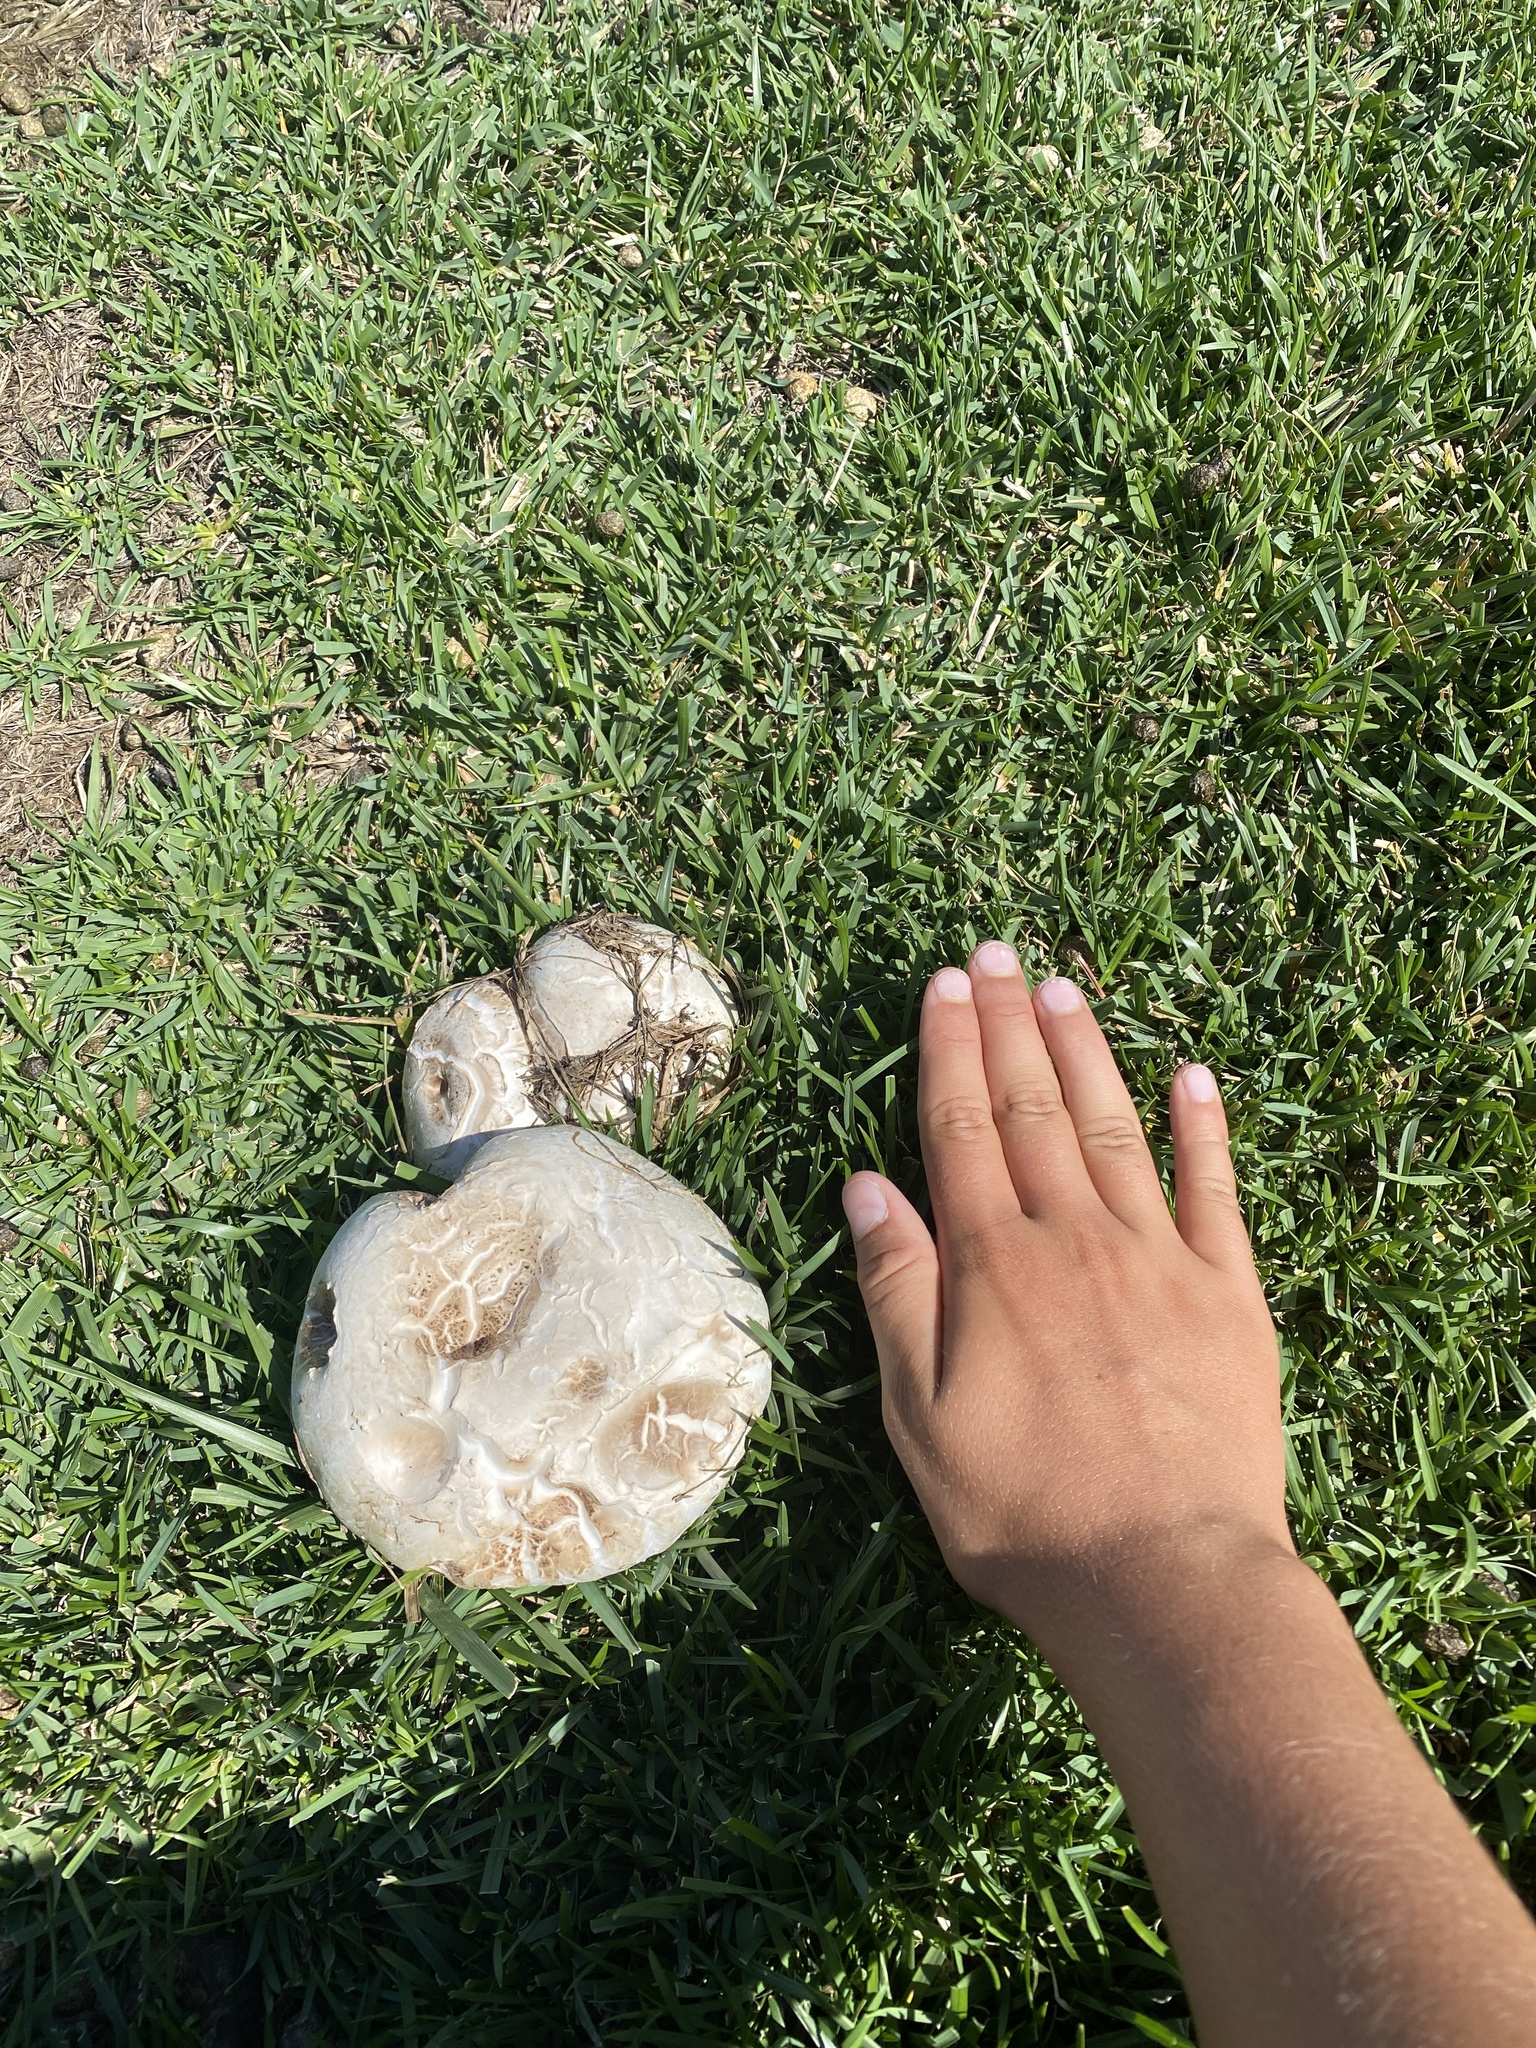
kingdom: Fungi
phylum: Basidiomycota
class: Agaricomycetes
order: Agaricales
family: Agaricaceae
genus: Agaricus
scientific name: Agaricus bernardii
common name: Salty mushroom
